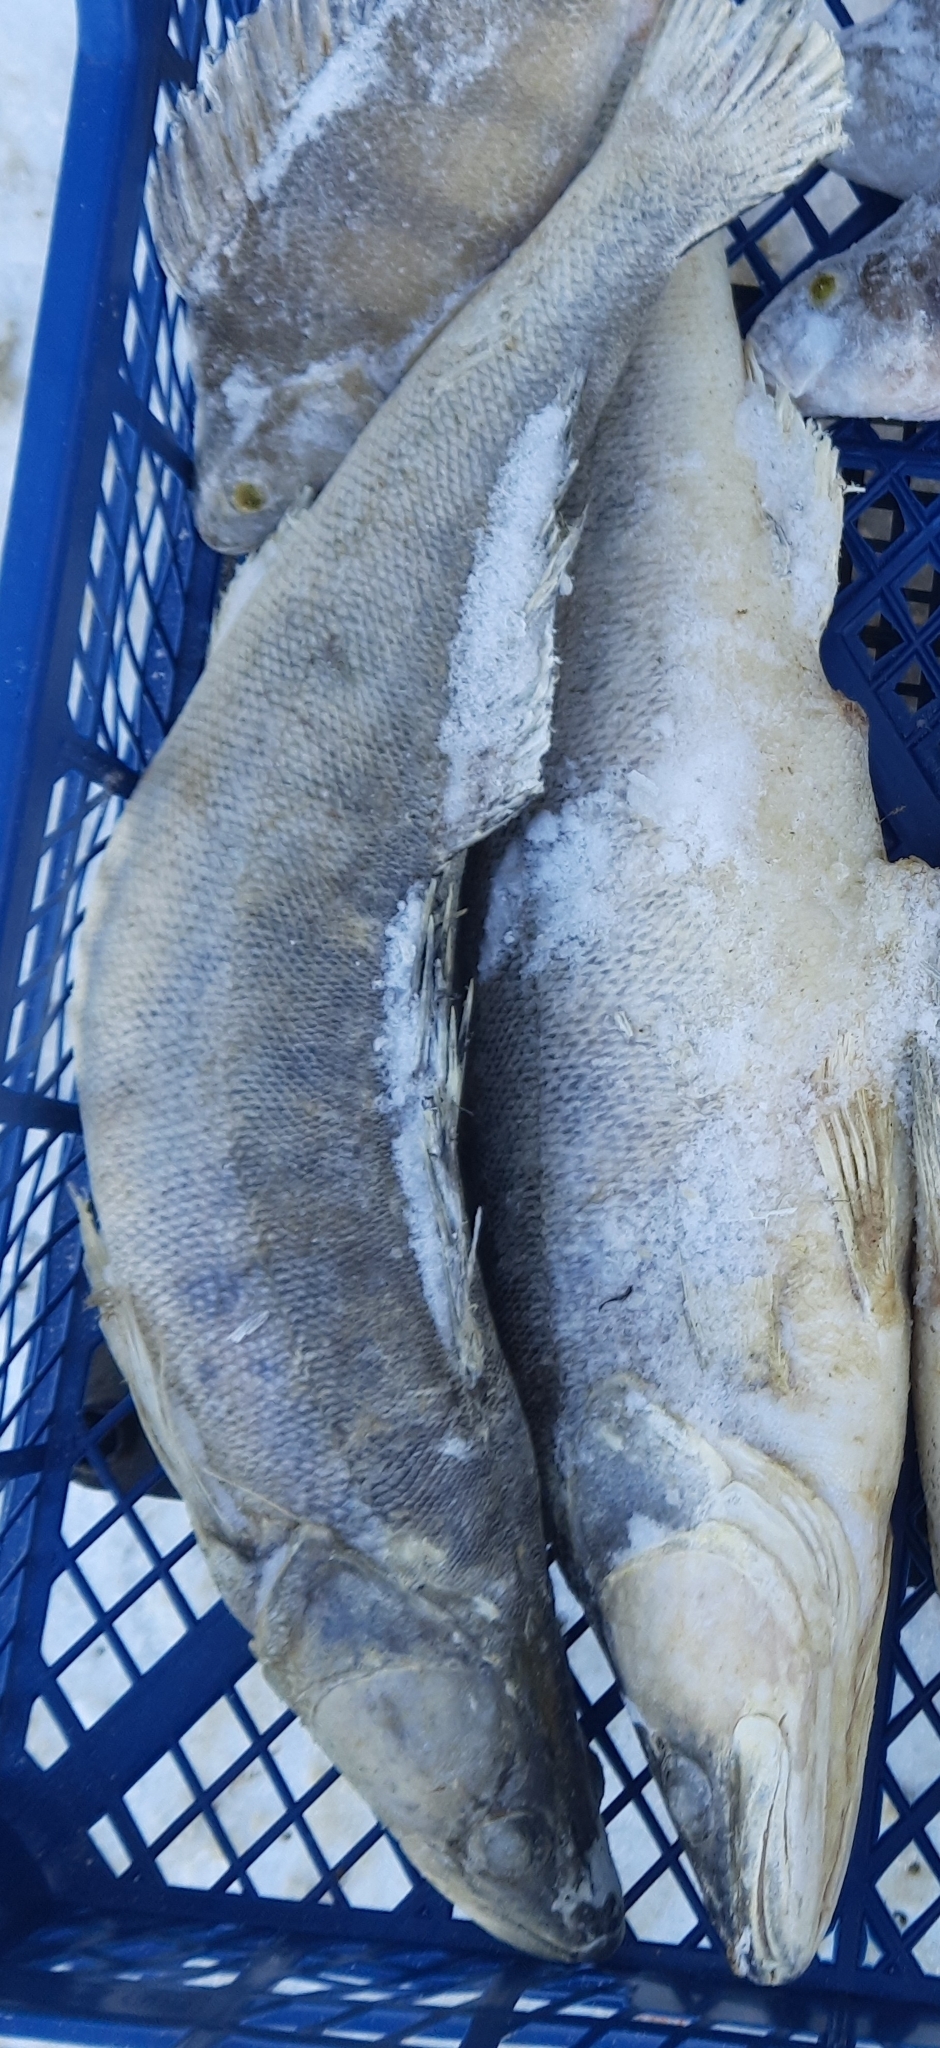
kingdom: Animalia
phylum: Chordata
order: Perciformes
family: Percidae
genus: Sander
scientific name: Sander lucioperca
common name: Pikeperch
